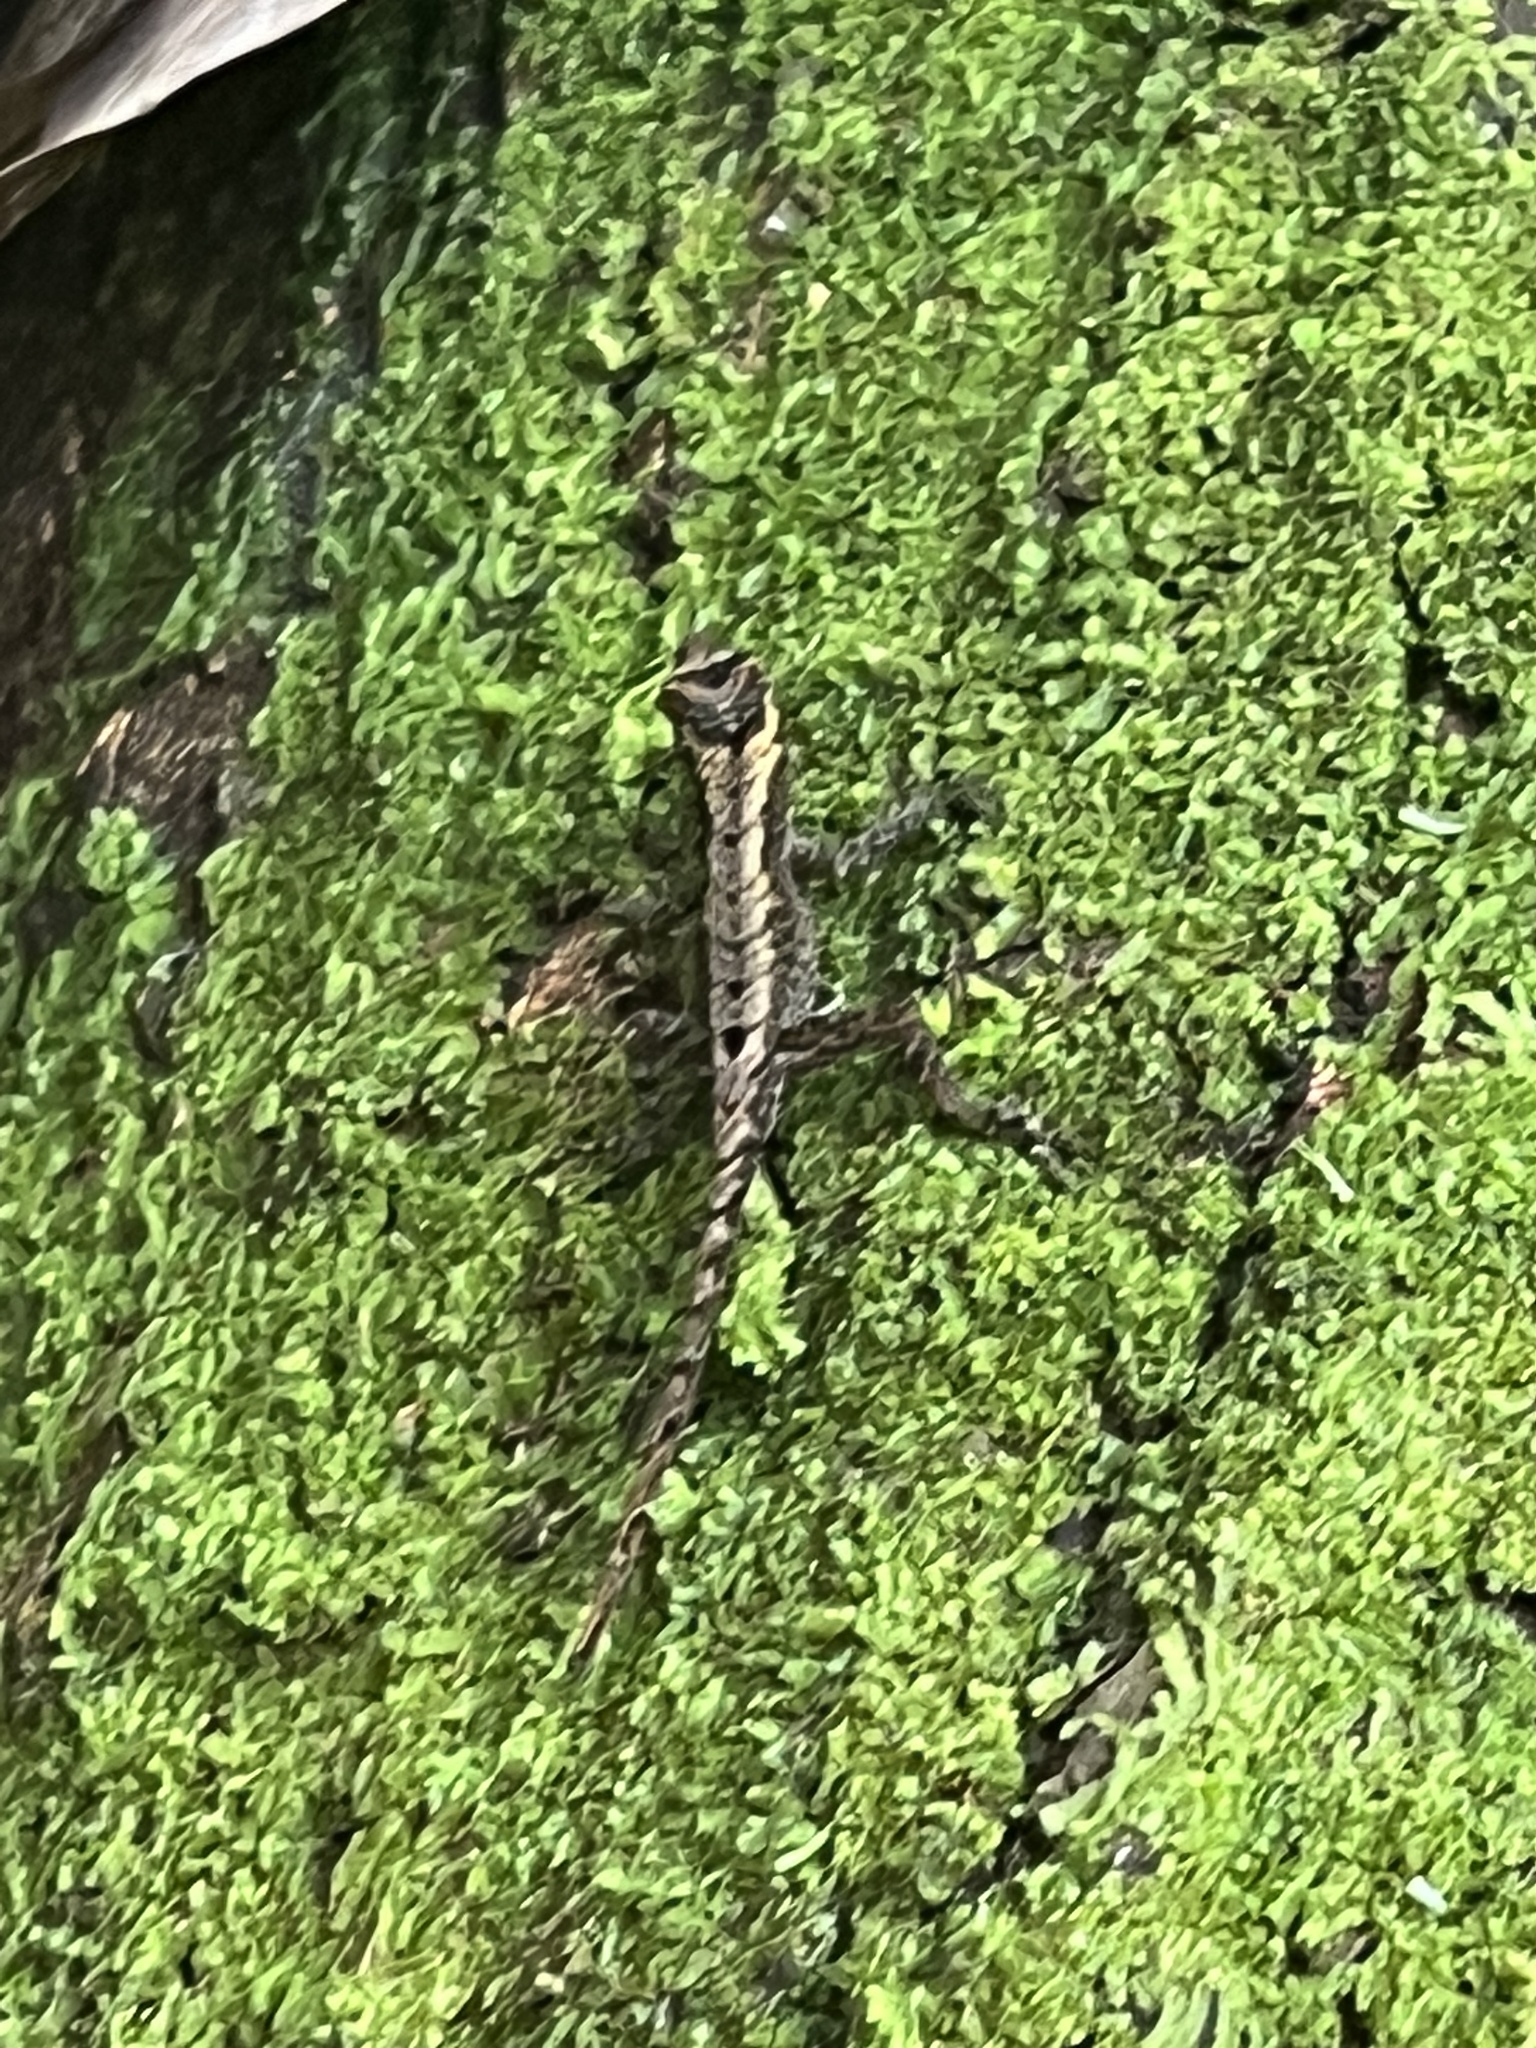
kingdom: Animalia
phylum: Chordata
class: Squamata
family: Dactyloidae
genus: Anolis
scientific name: Anolis humilis
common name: Humble anole
